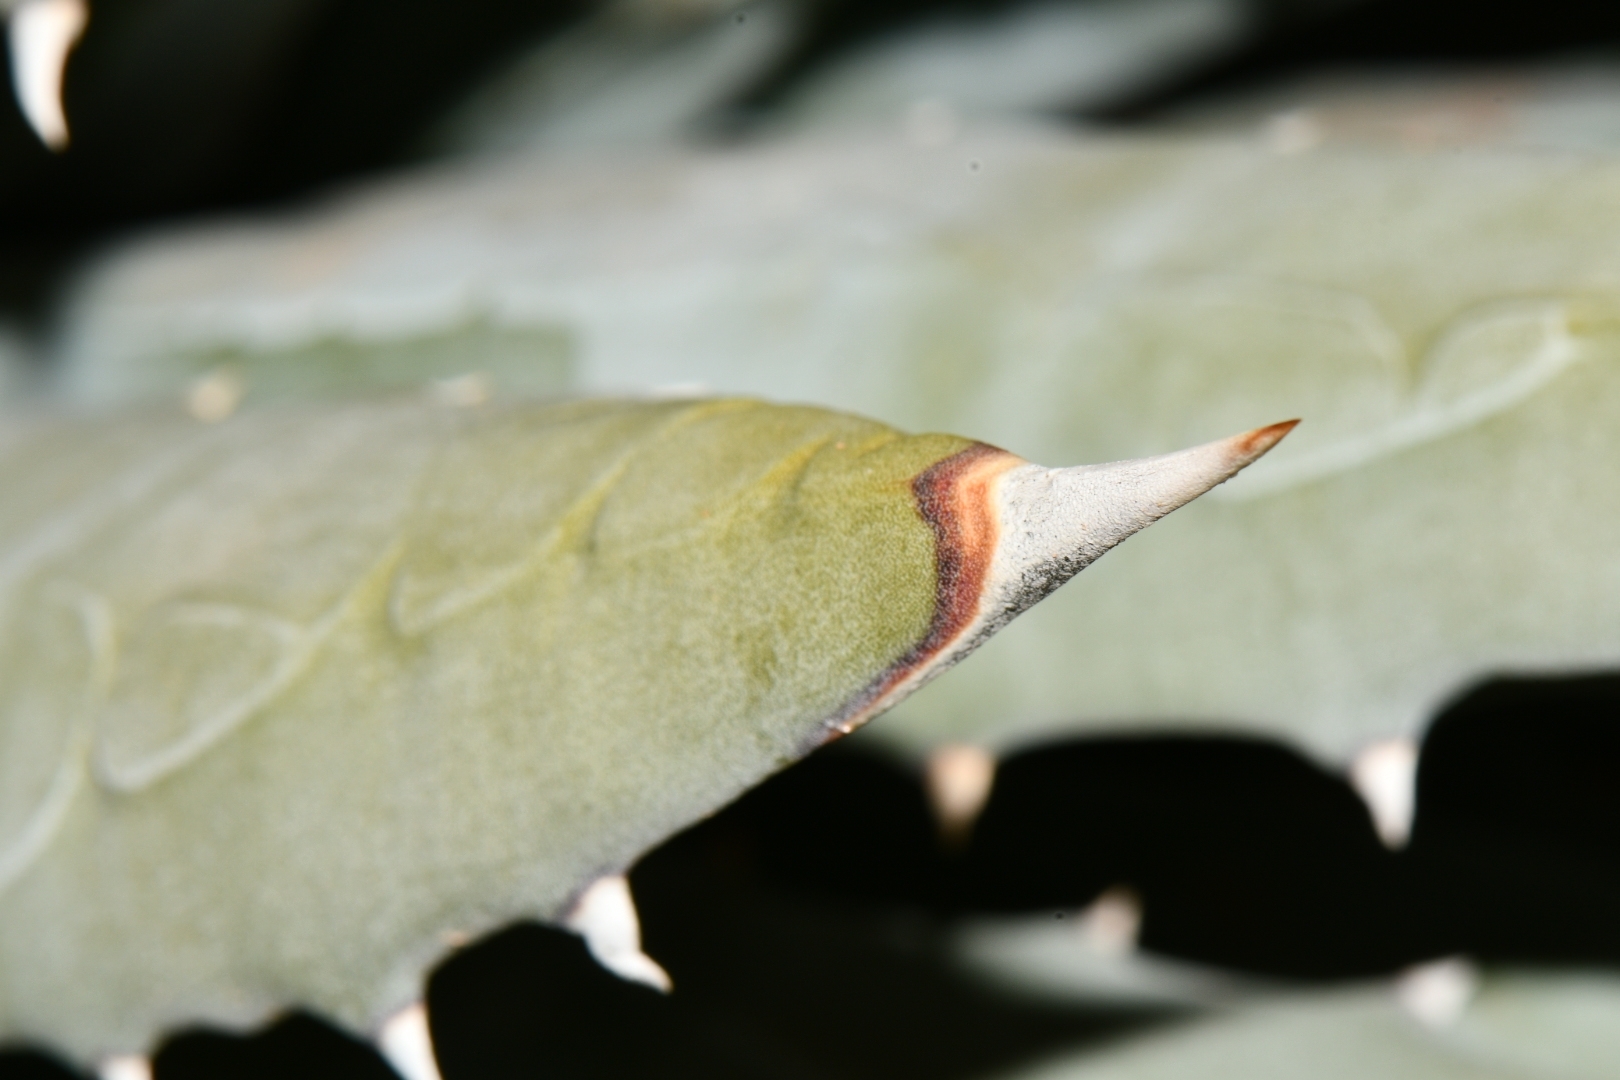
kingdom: Plantae
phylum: Tracheophyta
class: Liliopsida
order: Asparagales
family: Asparagaceae
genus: Agave
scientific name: Agave utahensis
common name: Utah agave
